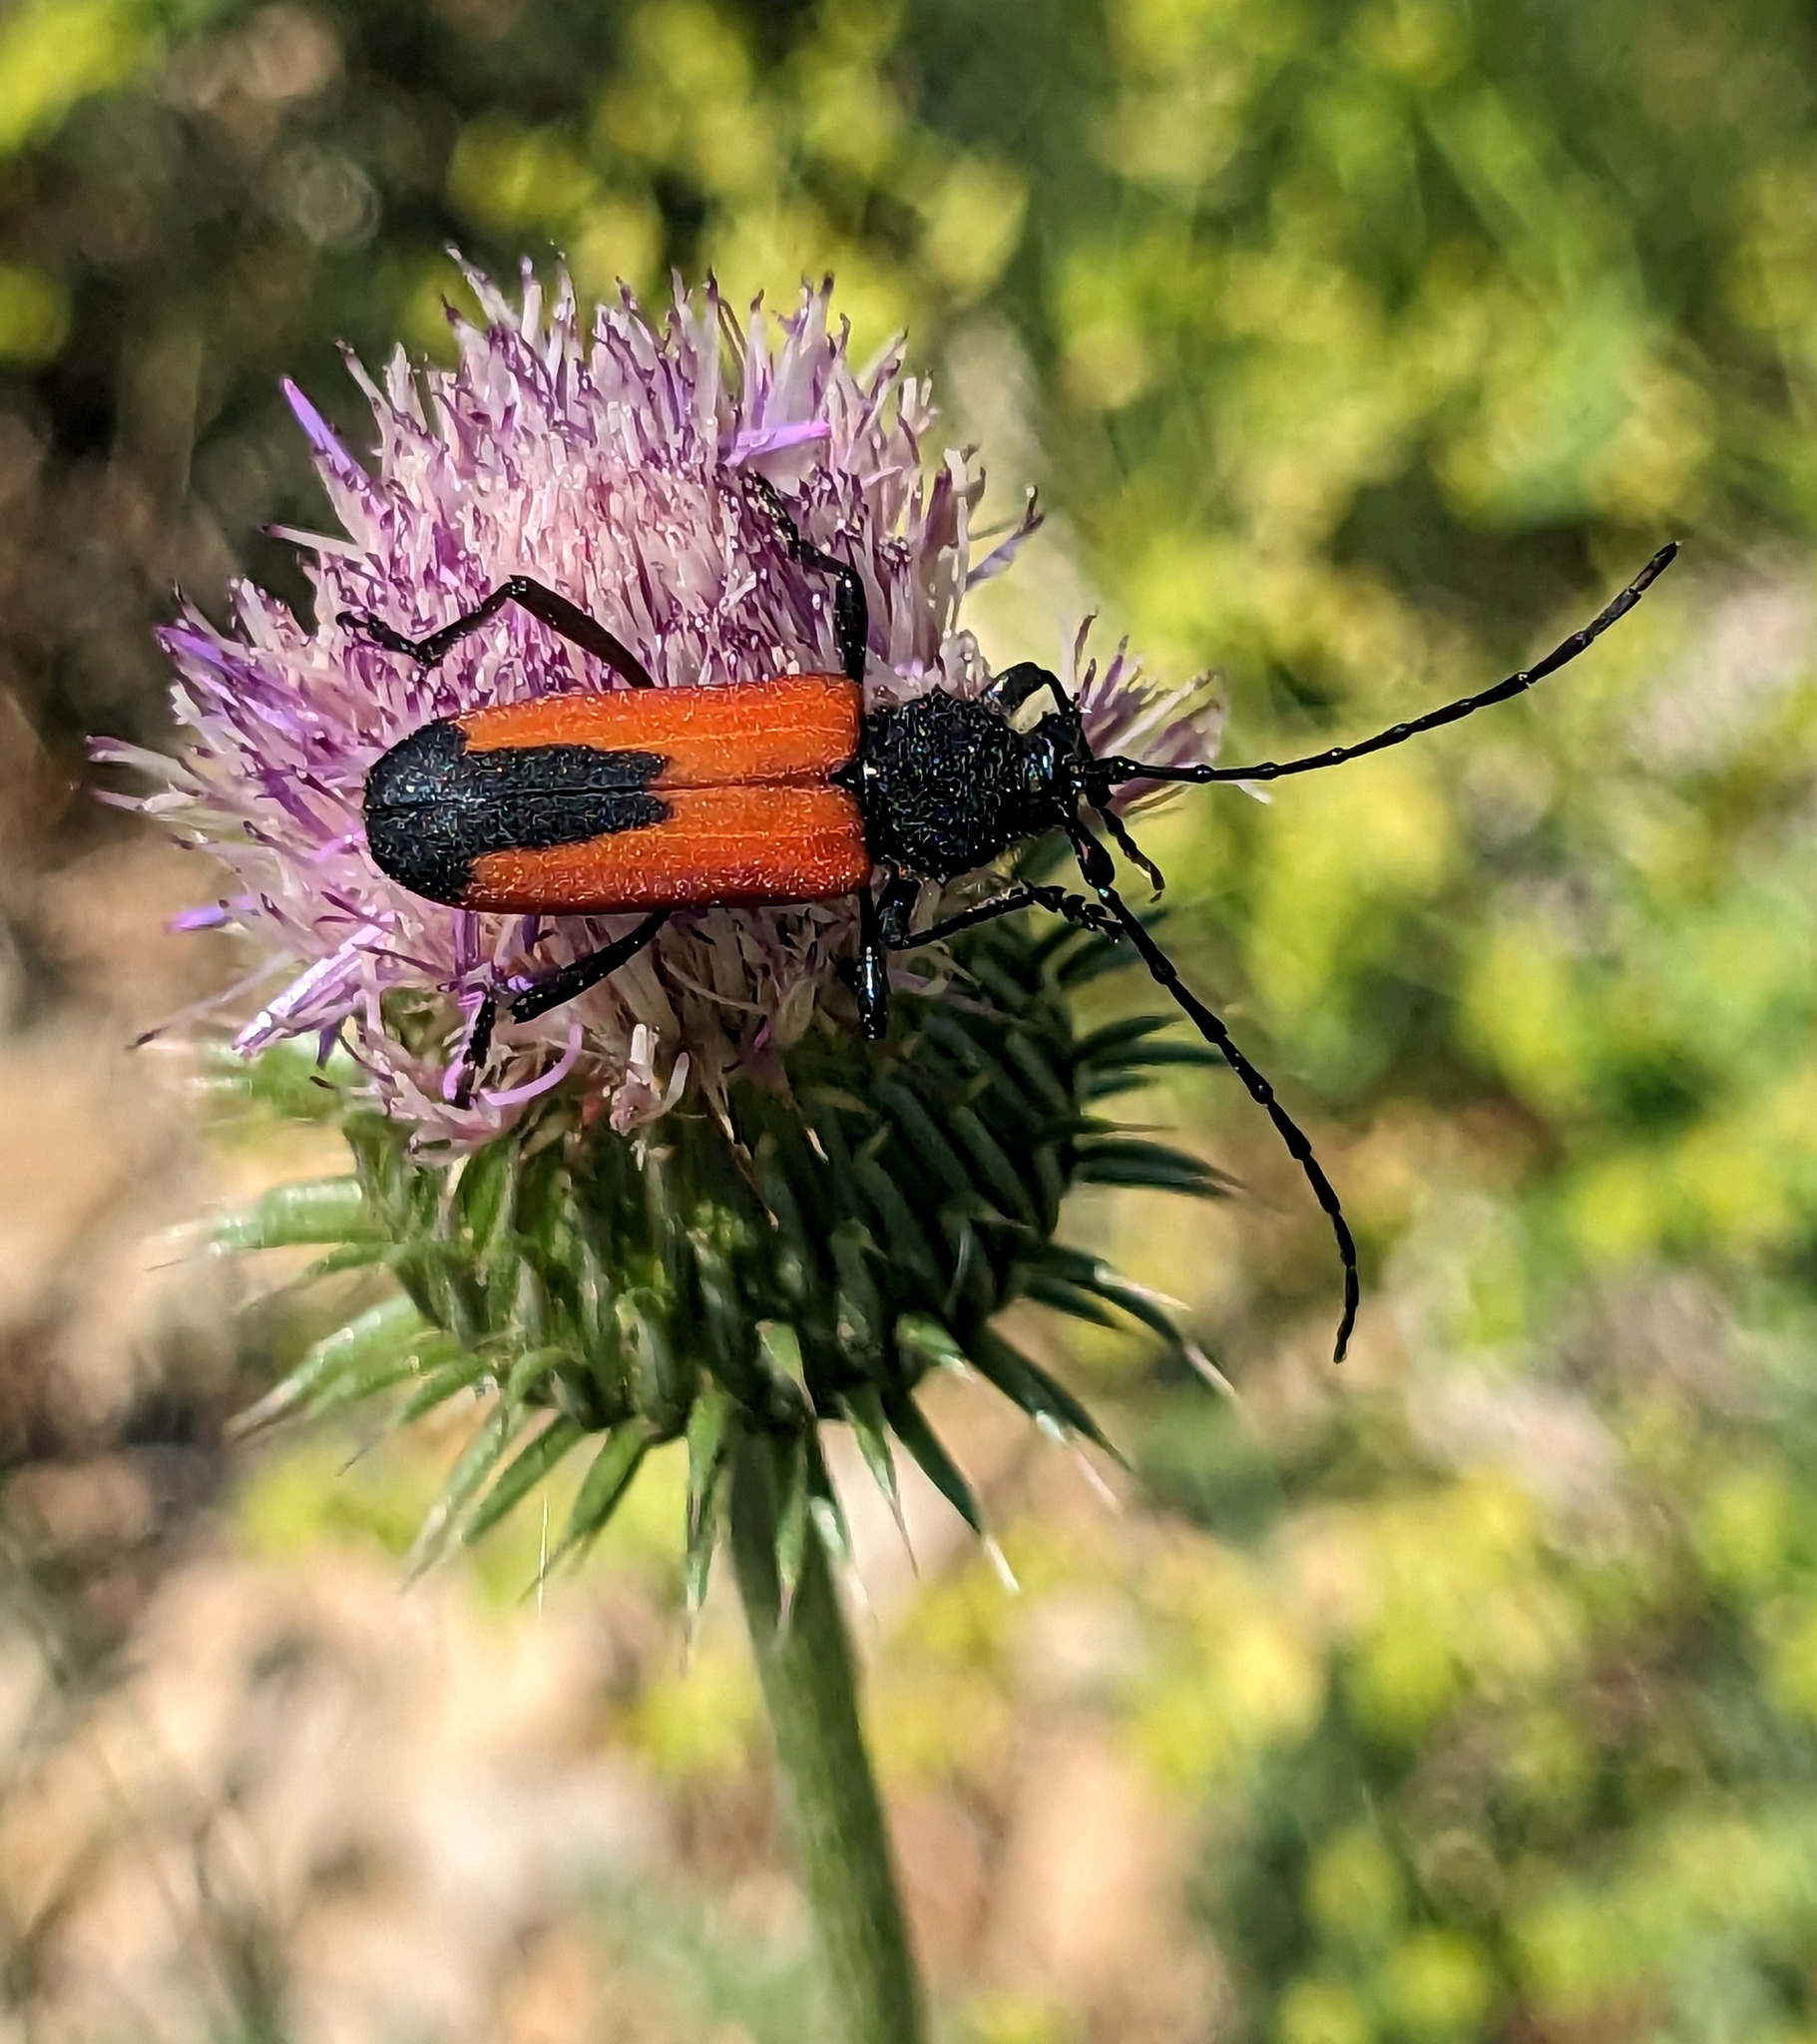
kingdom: Animalia
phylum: Arthropoda
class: Insecta
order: Coleoptera
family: Cerambycidae
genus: Purpuricenus
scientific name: Purpuricenus budensis
